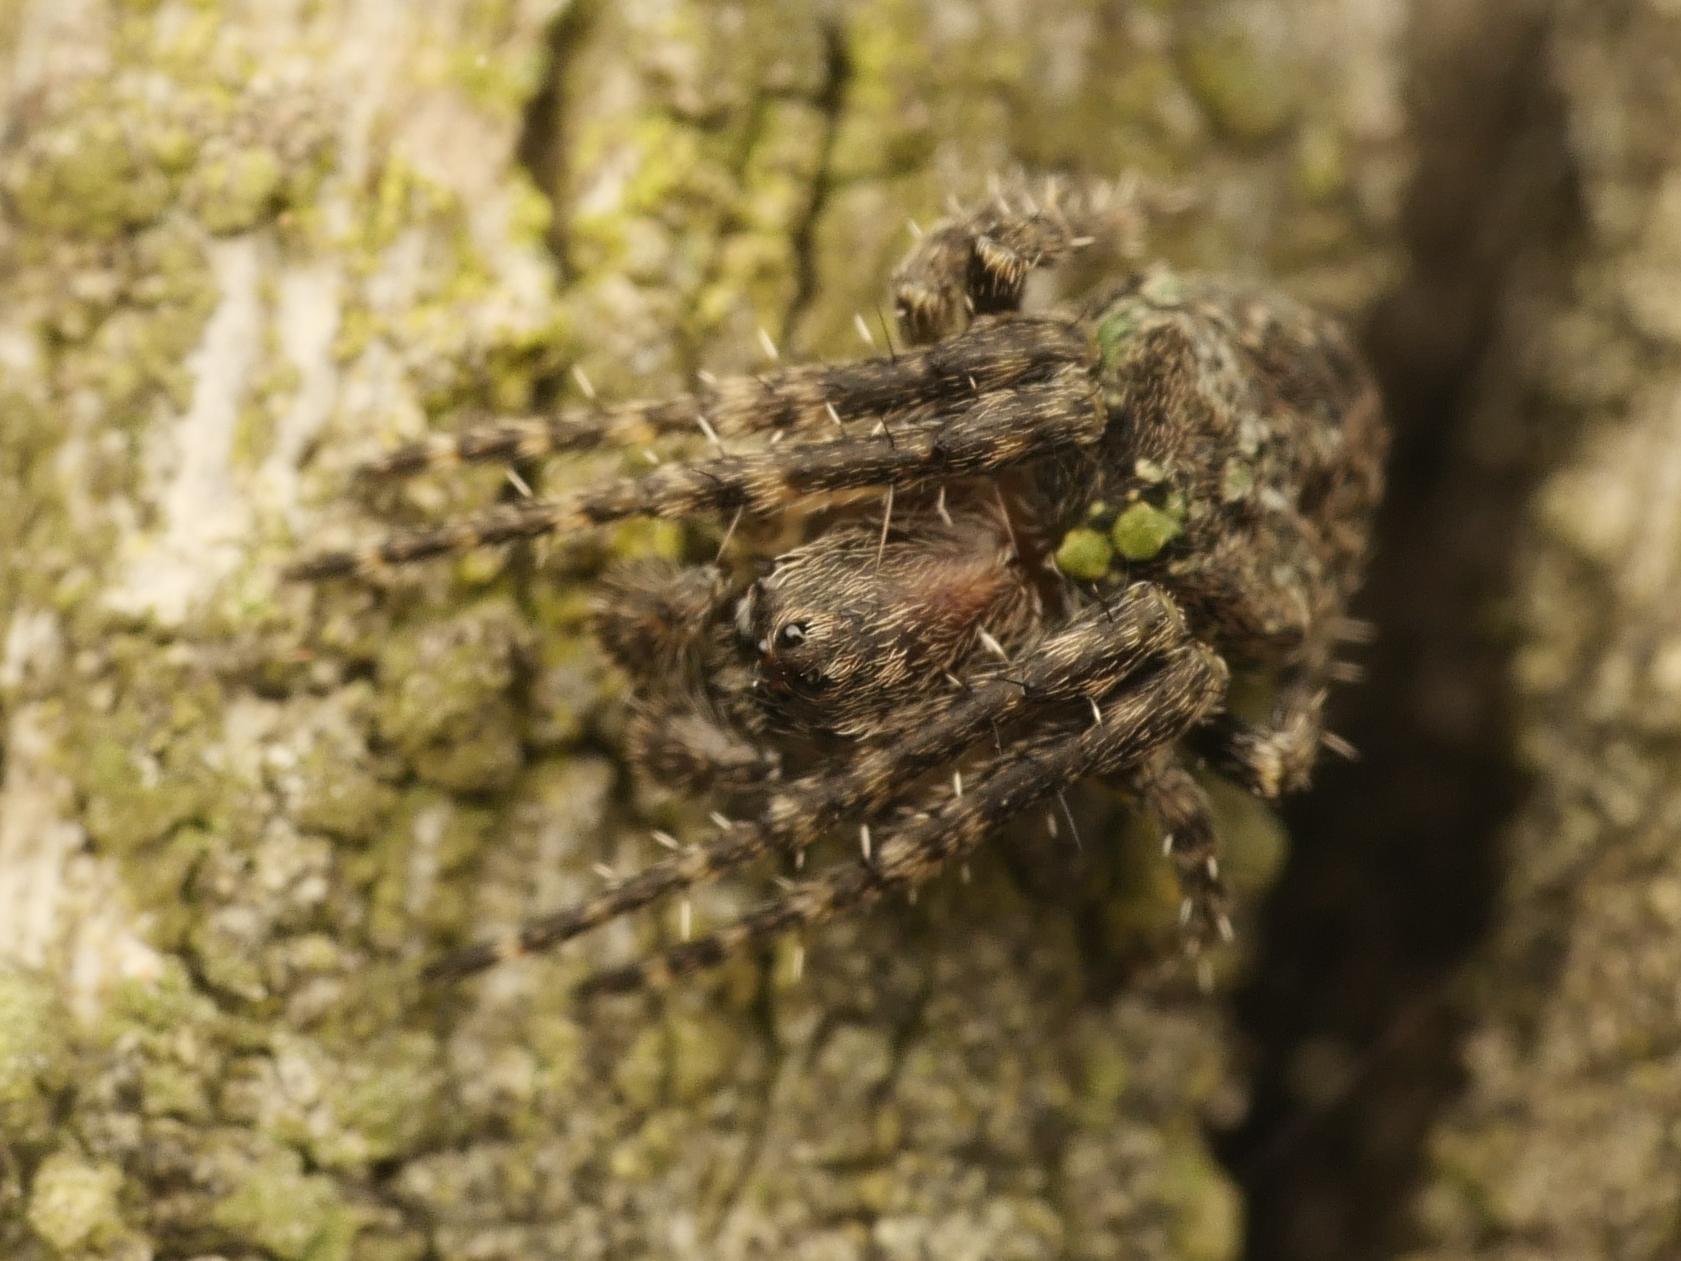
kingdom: Animalia
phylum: Arthropoda
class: Arachnida
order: Araneae
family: Araneidae
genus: Gibbaranea
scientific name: Gibbaranea gibbosa
